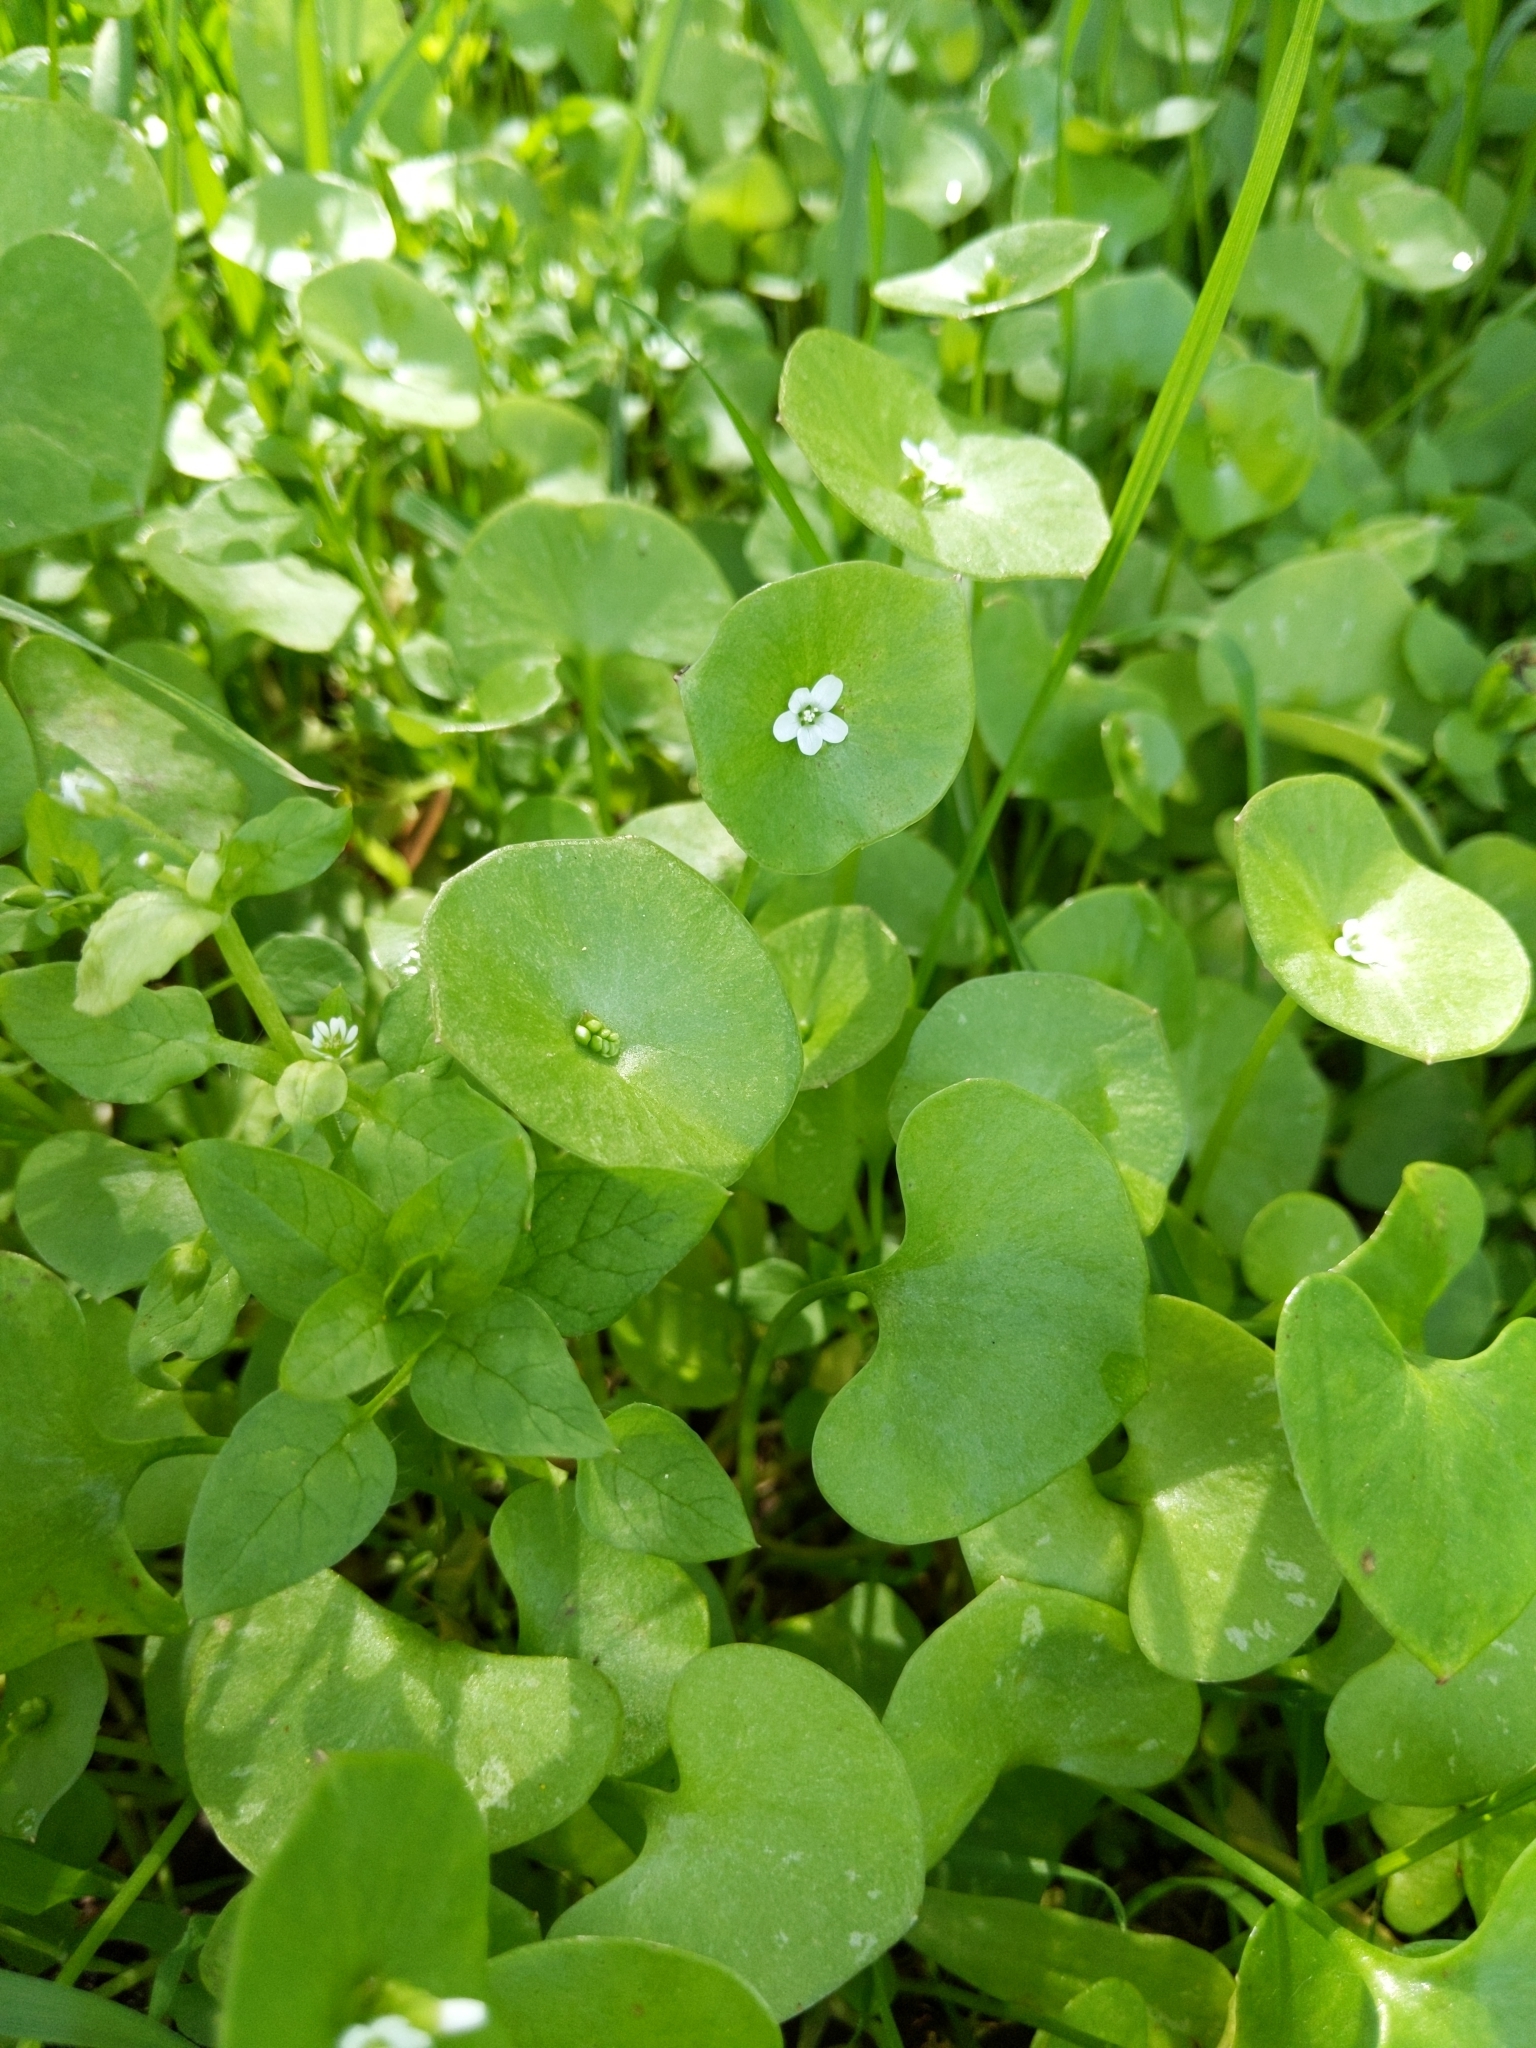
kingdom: Plantae
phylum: Tracheophyta
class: Magnoliopsida
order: Caryophyllales
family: Montiaceae
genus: Claytonia
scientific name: Claytonia perfoliata
